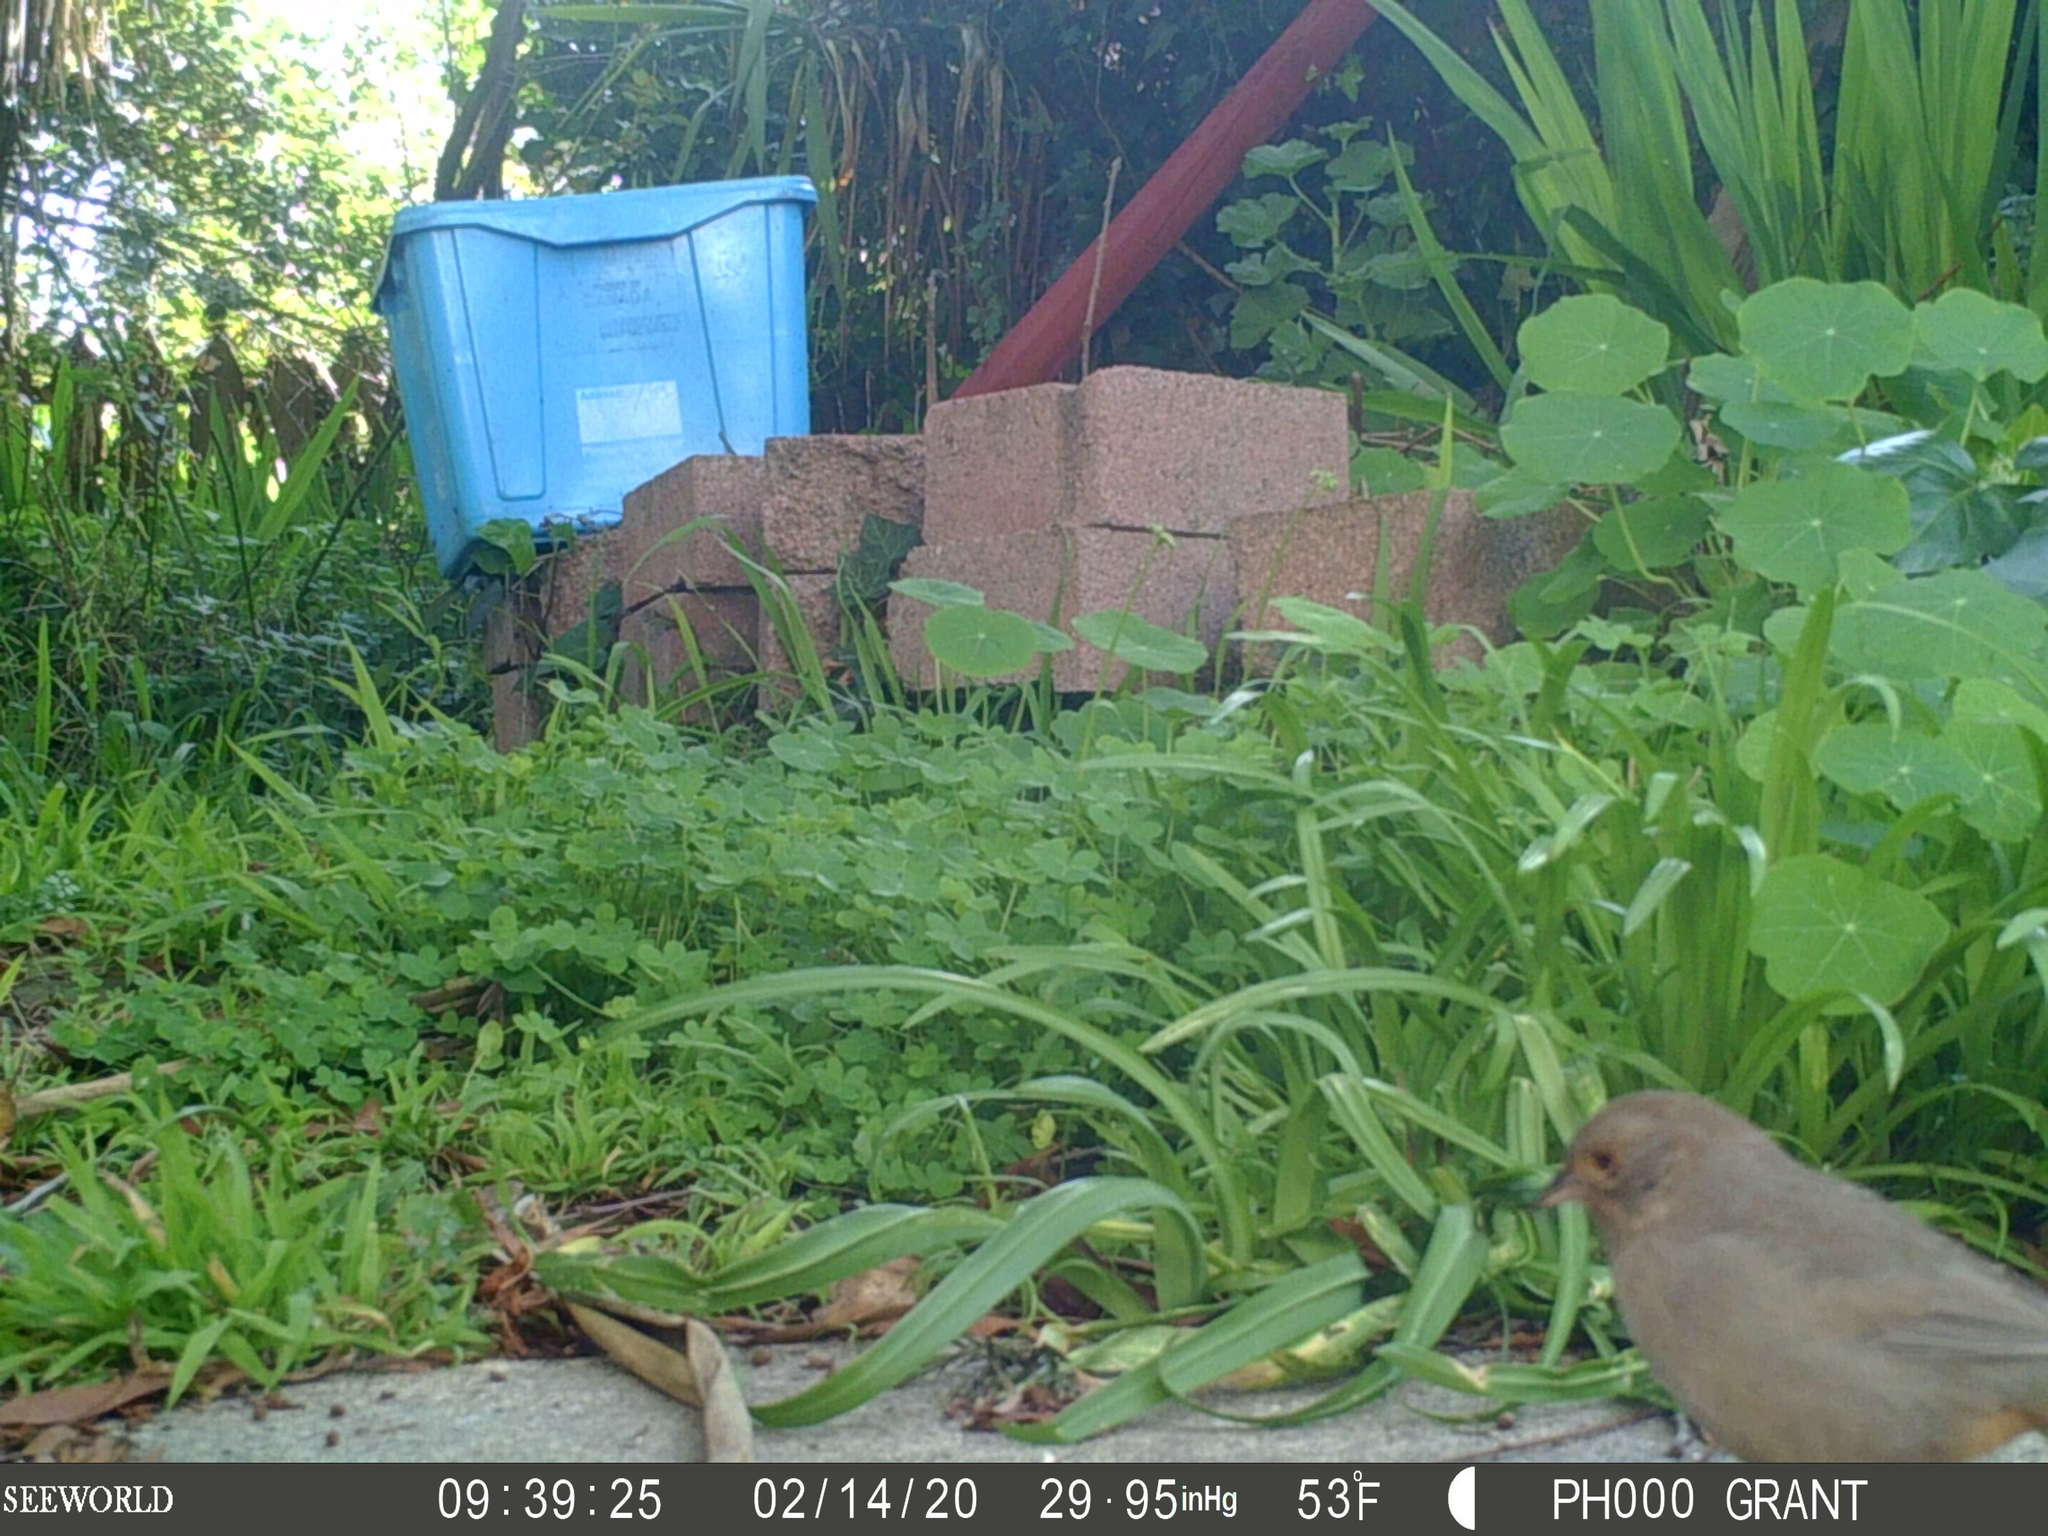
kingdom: Animalia
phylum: Chordata
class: Aves
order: Passeriformes
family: Passerellidae
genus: Melozone
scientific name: Melozone crissalis
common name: California towhee
